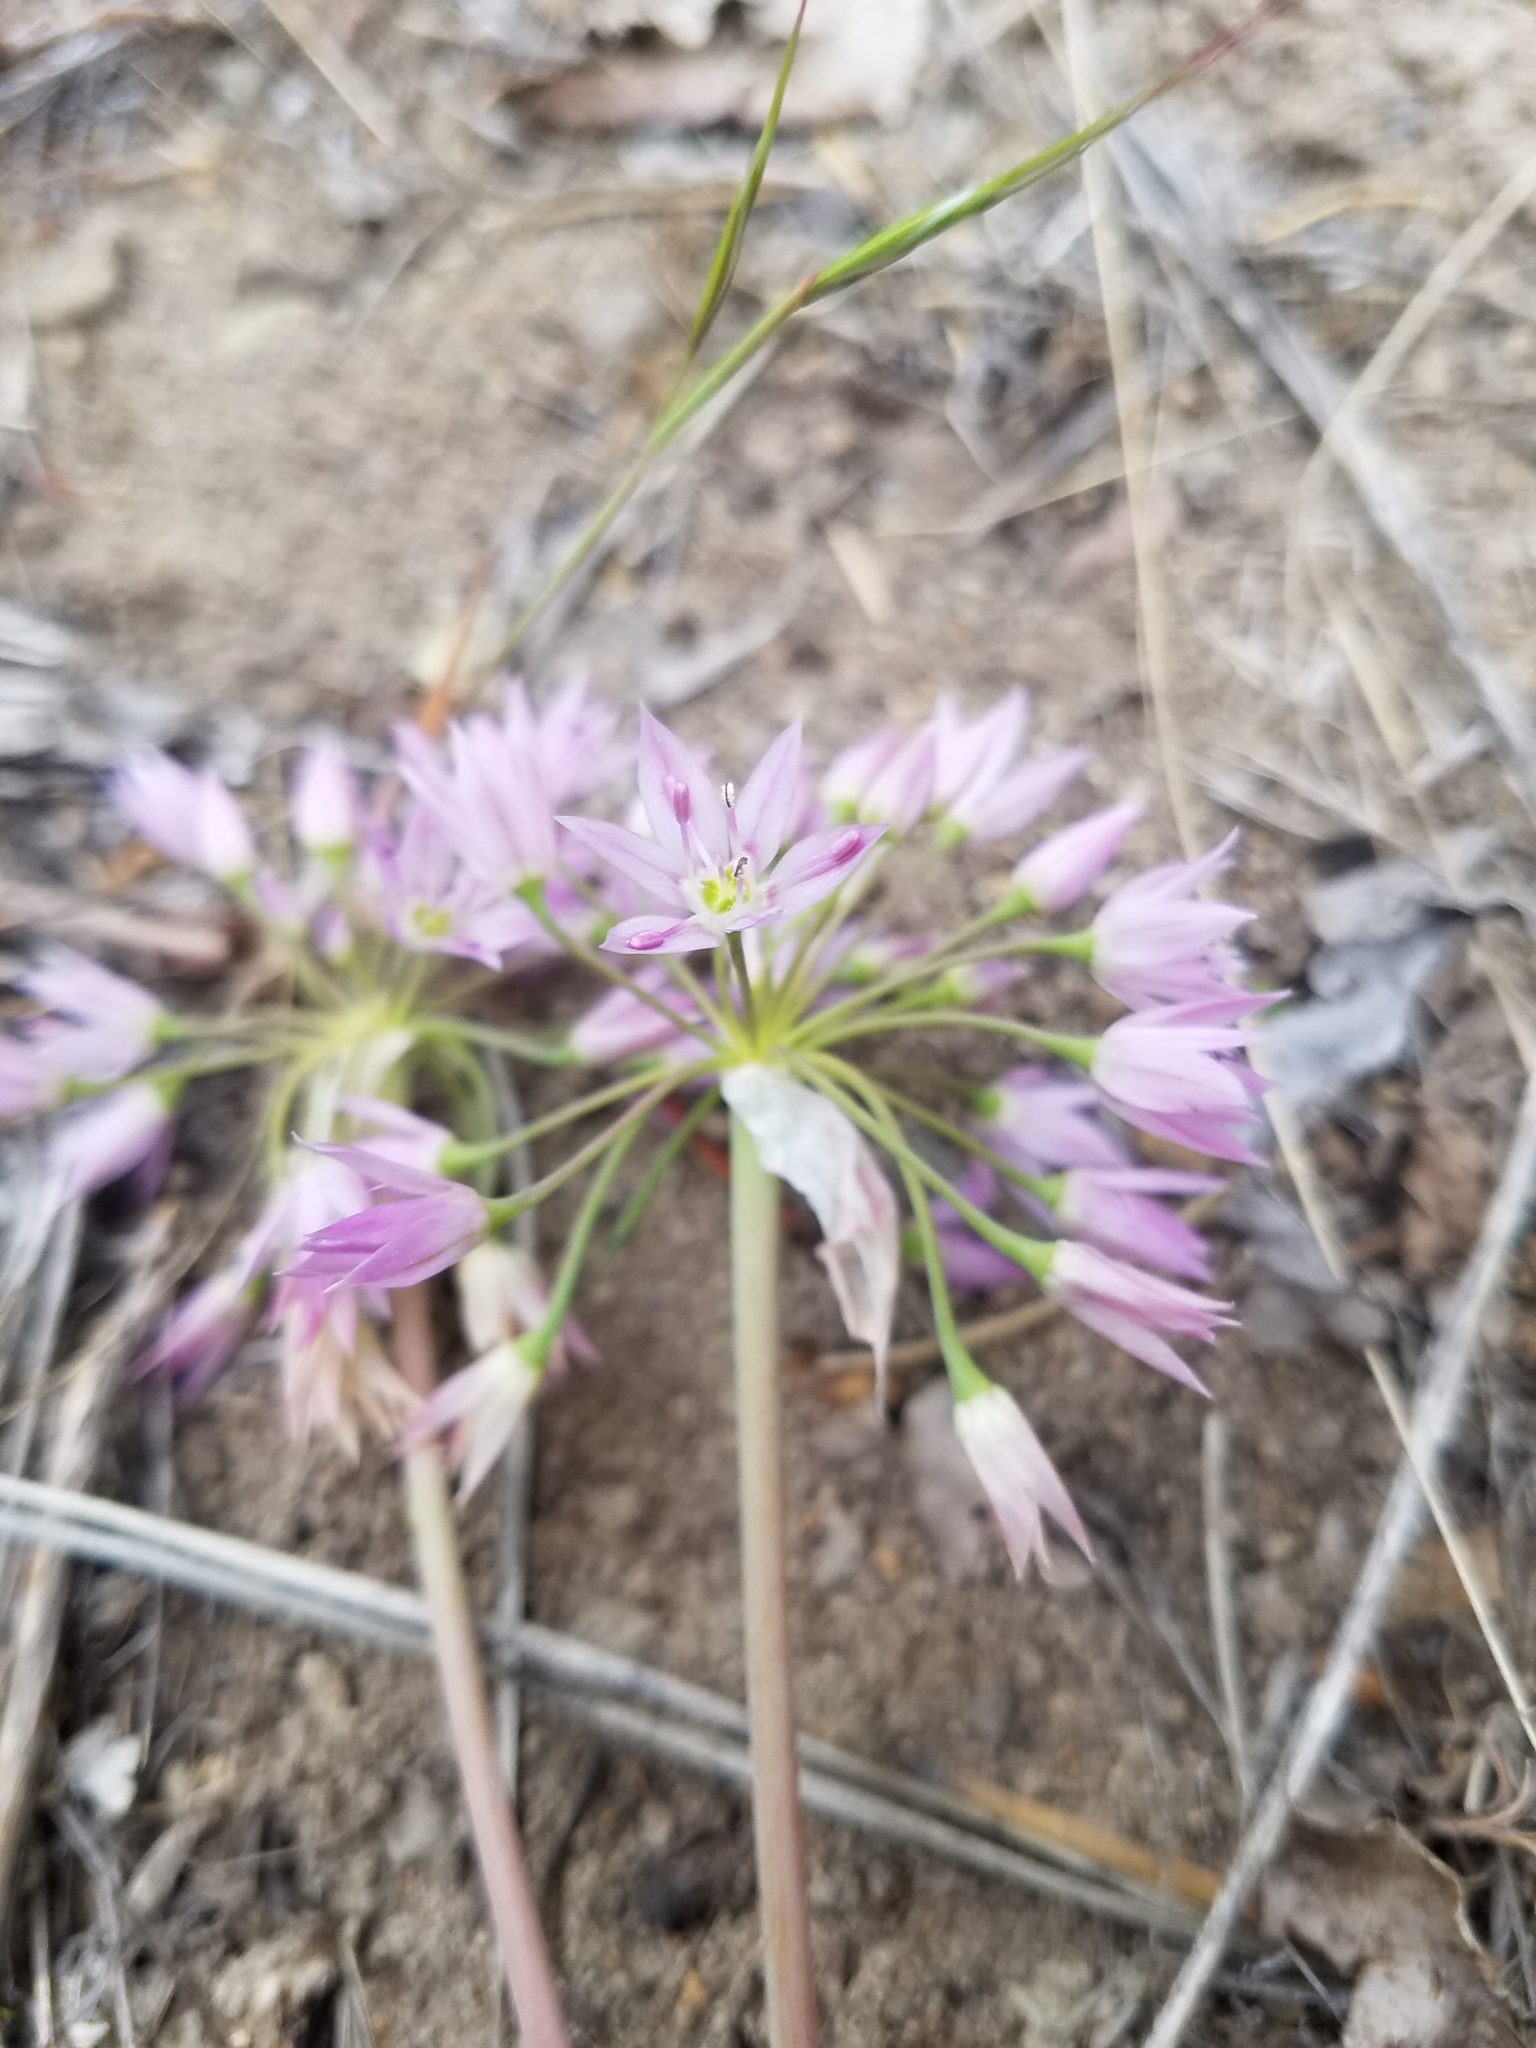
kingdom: Plantae
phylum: Tracheophyta
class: Liliopsida
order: Asparagales
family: Amaryllidaceae
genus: Allium
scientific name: Allium bisceptrum
